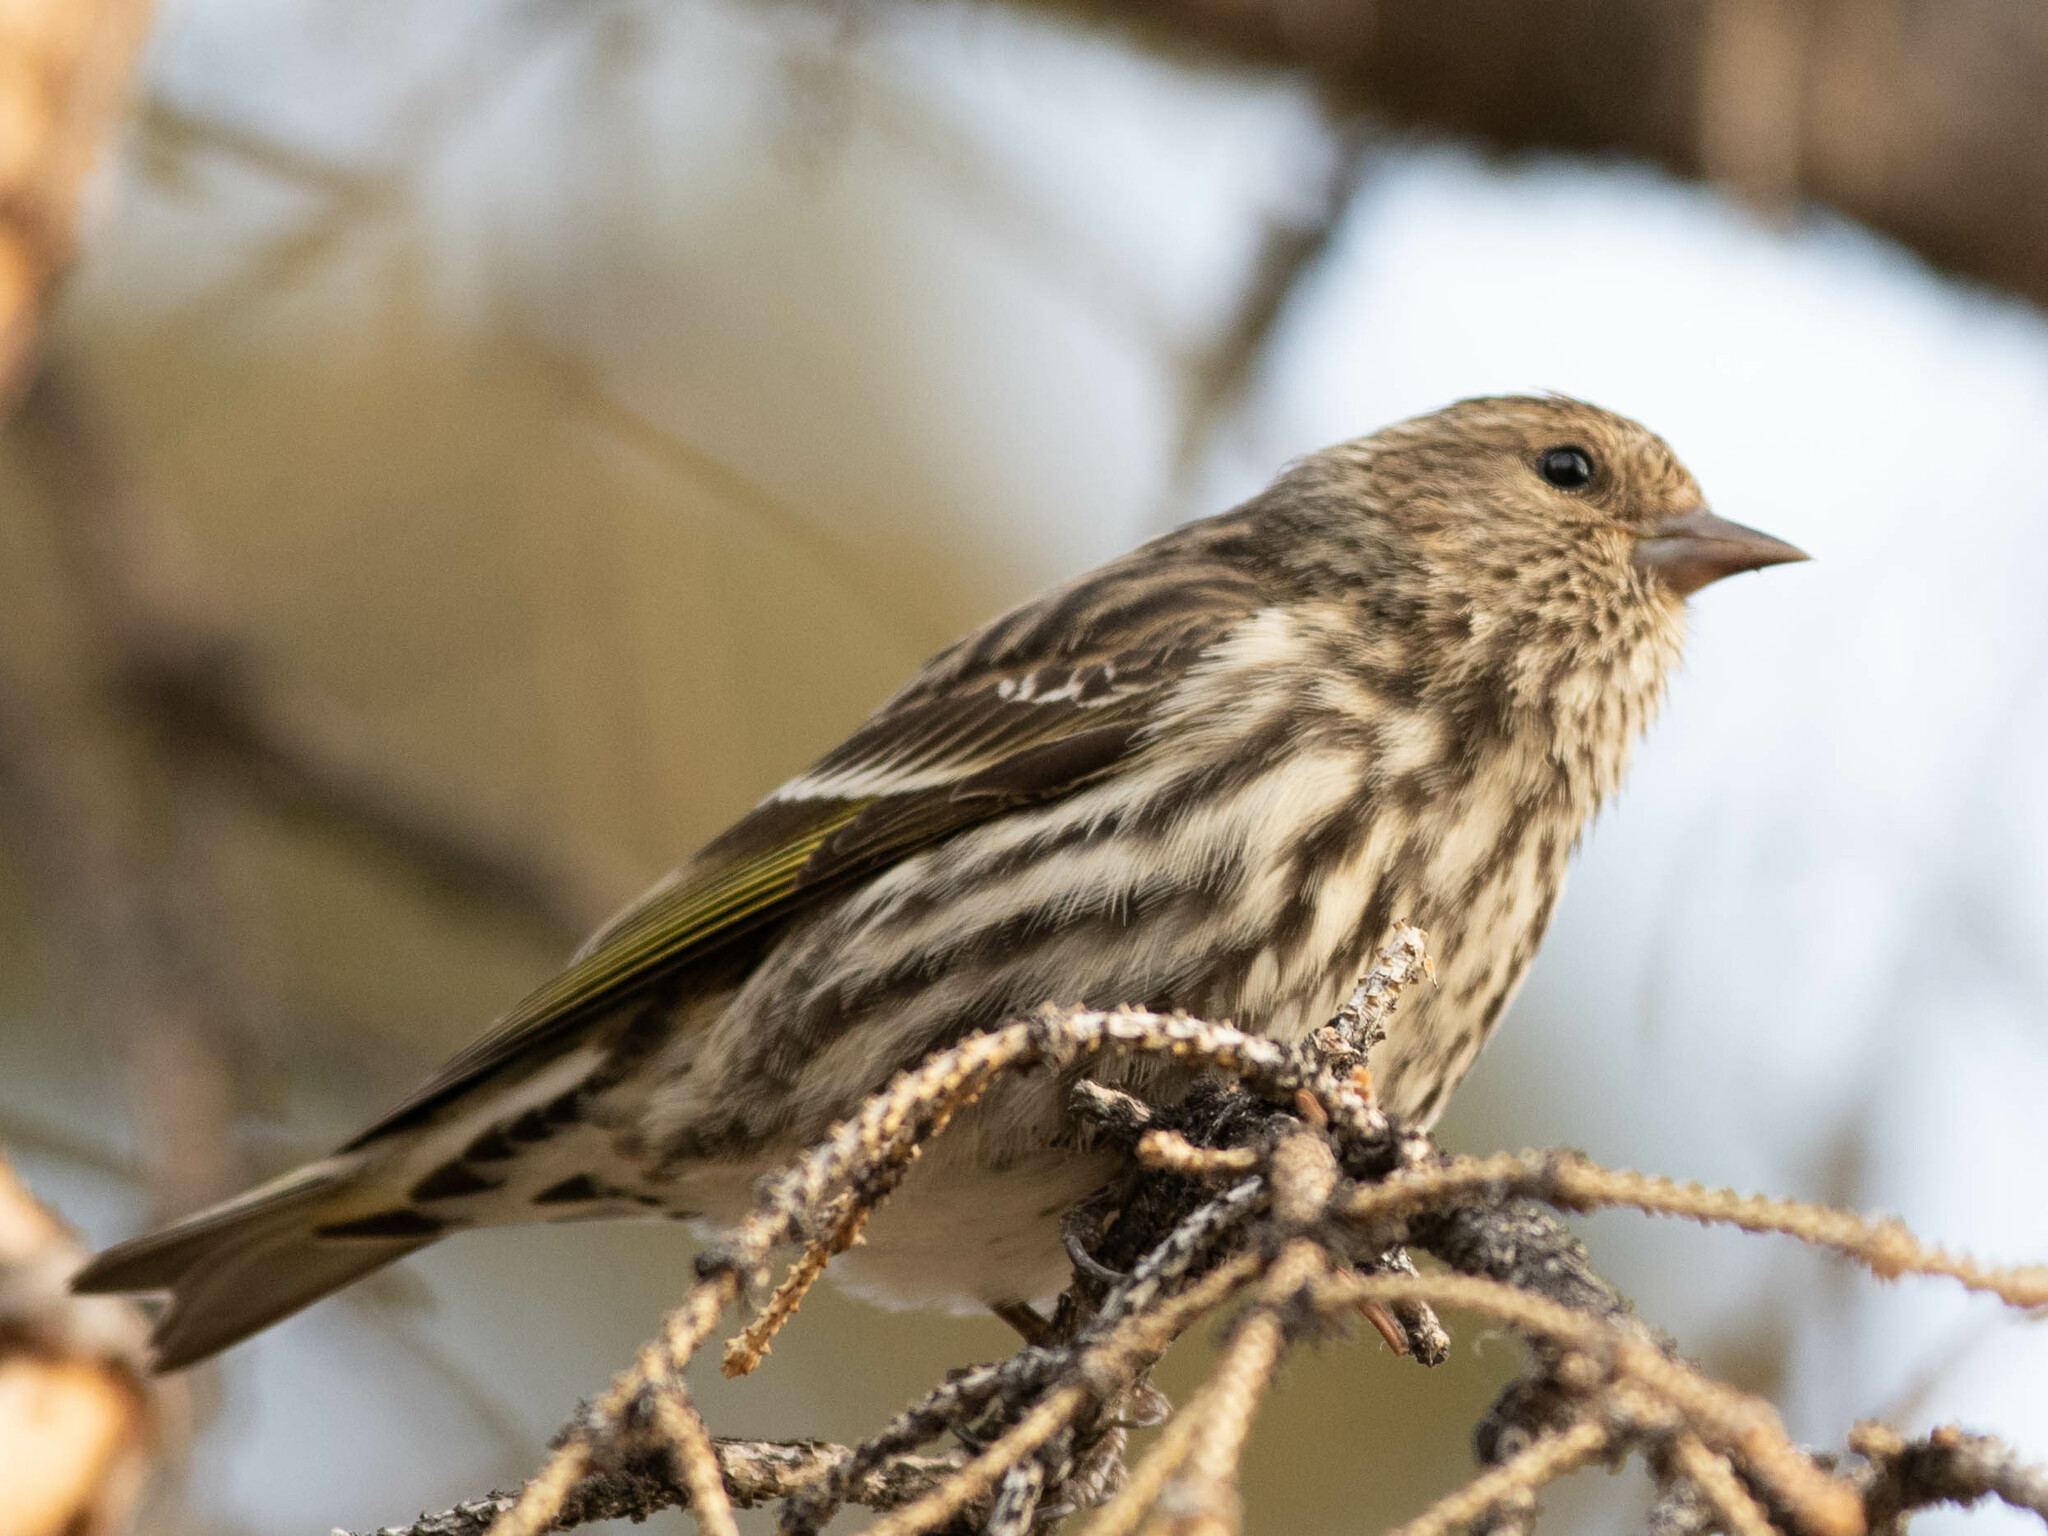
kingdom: Animalia
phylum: Chordata
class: Aves
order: Passeriformes
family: Fringillidae
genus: Spinus
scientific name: Spinus pinus
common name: Pine siskin
